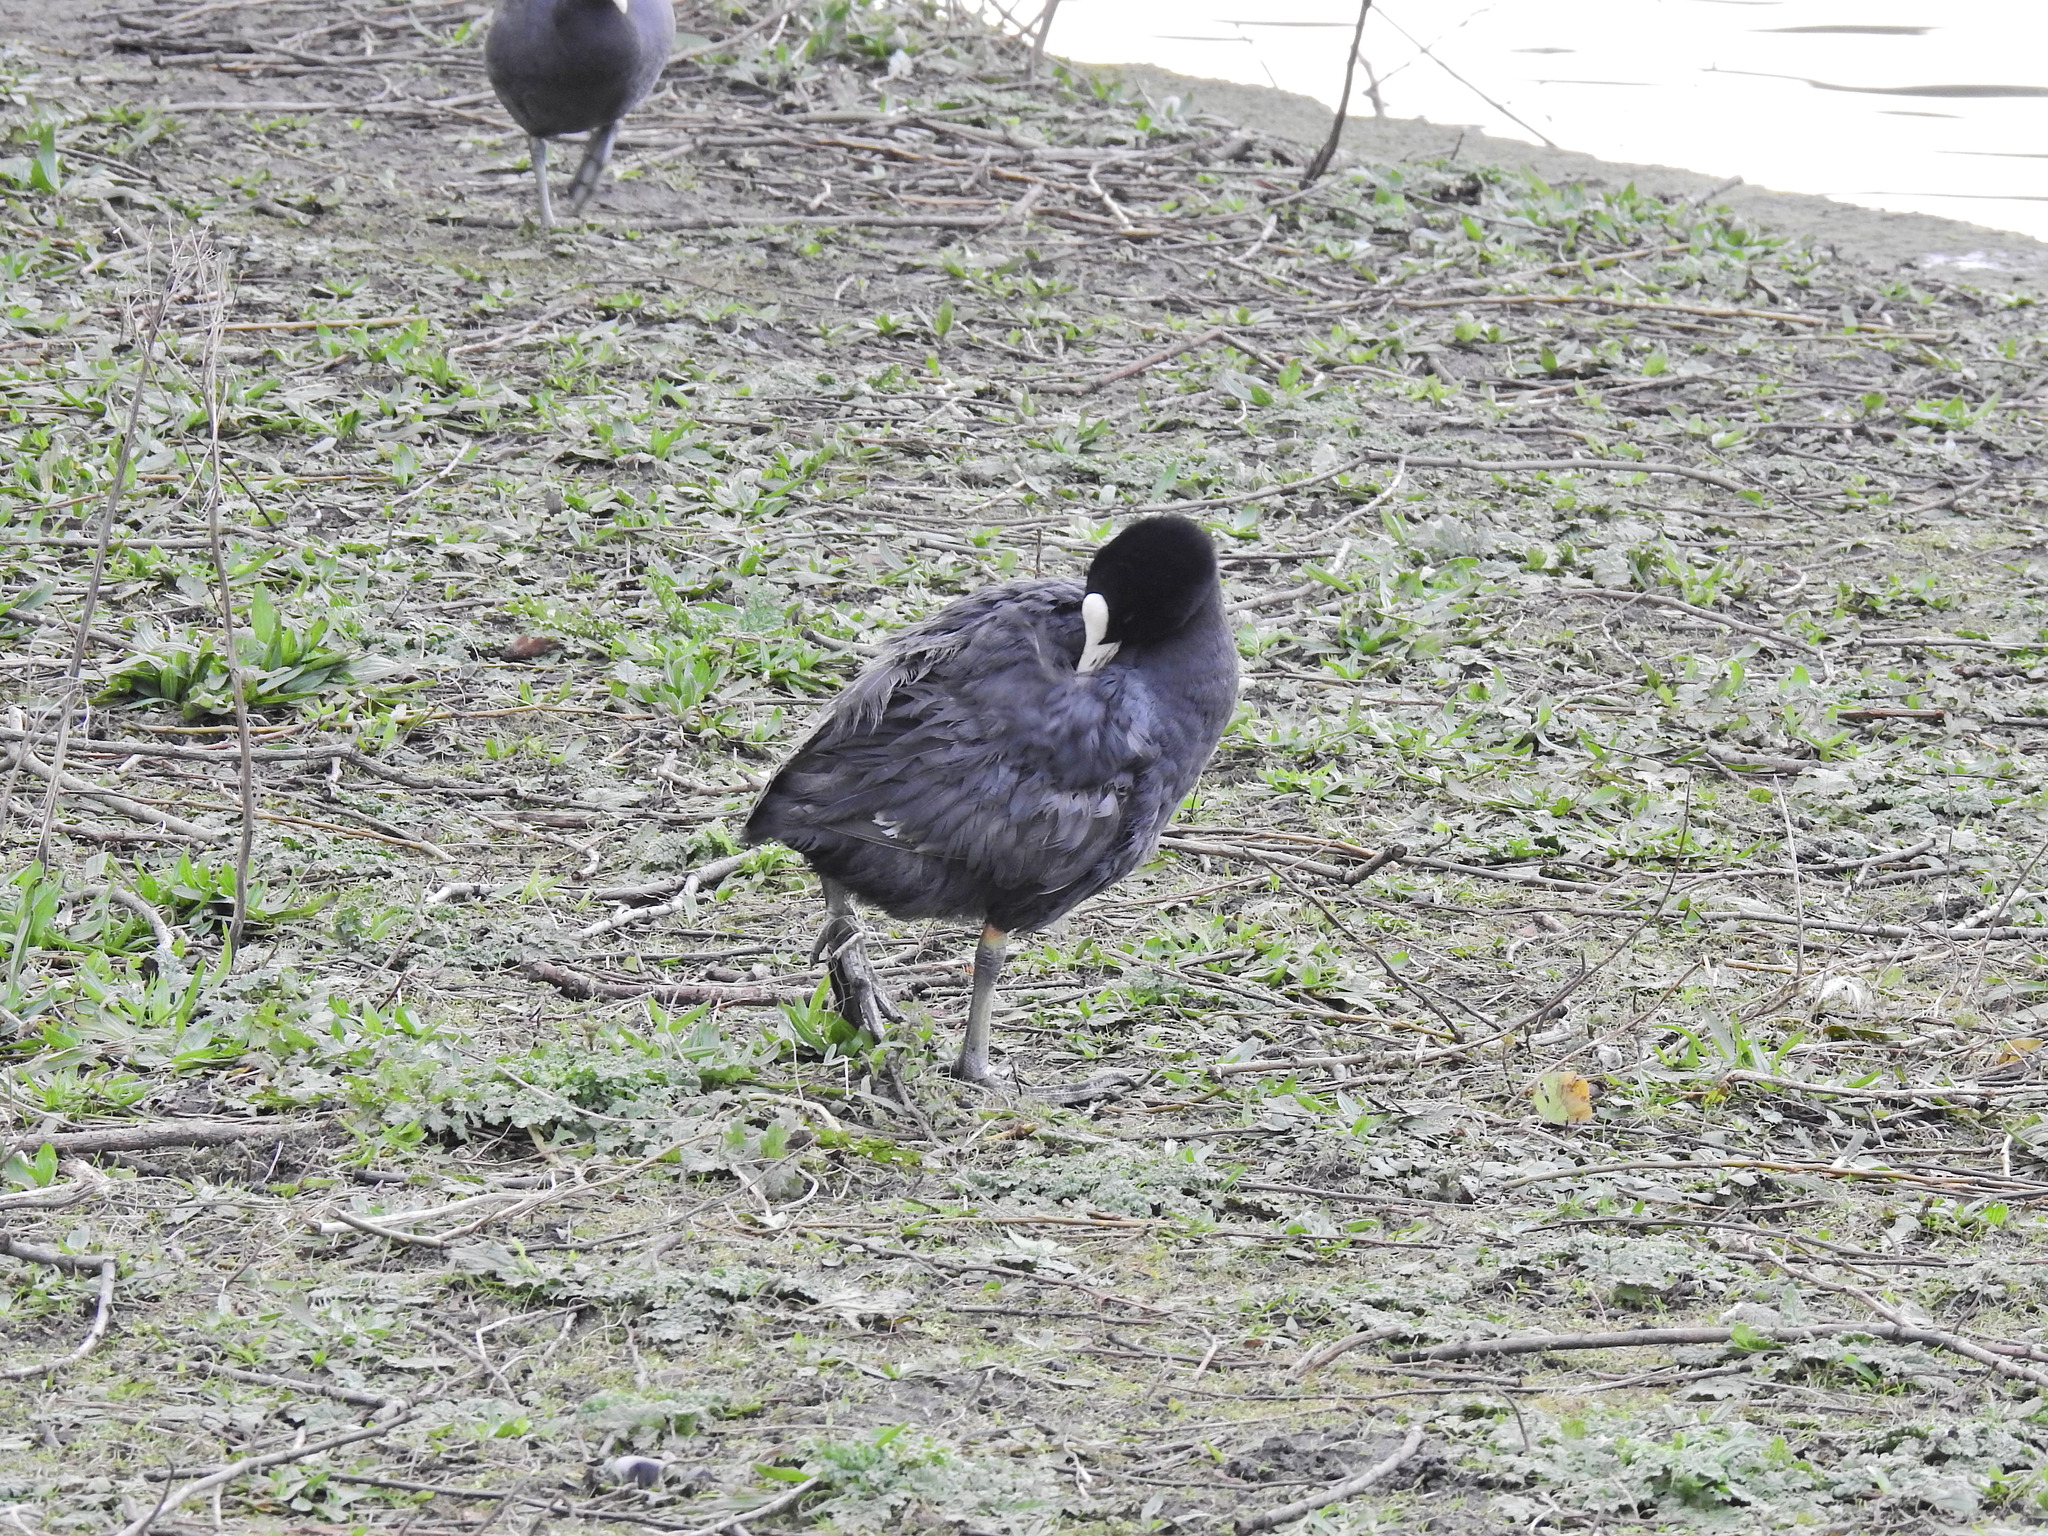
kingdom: Animalia
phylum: Chordata
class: Aves
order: Gruiformes
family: Rallidae
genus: Fulica
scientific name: Fulica atra
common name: Eurasian coot
